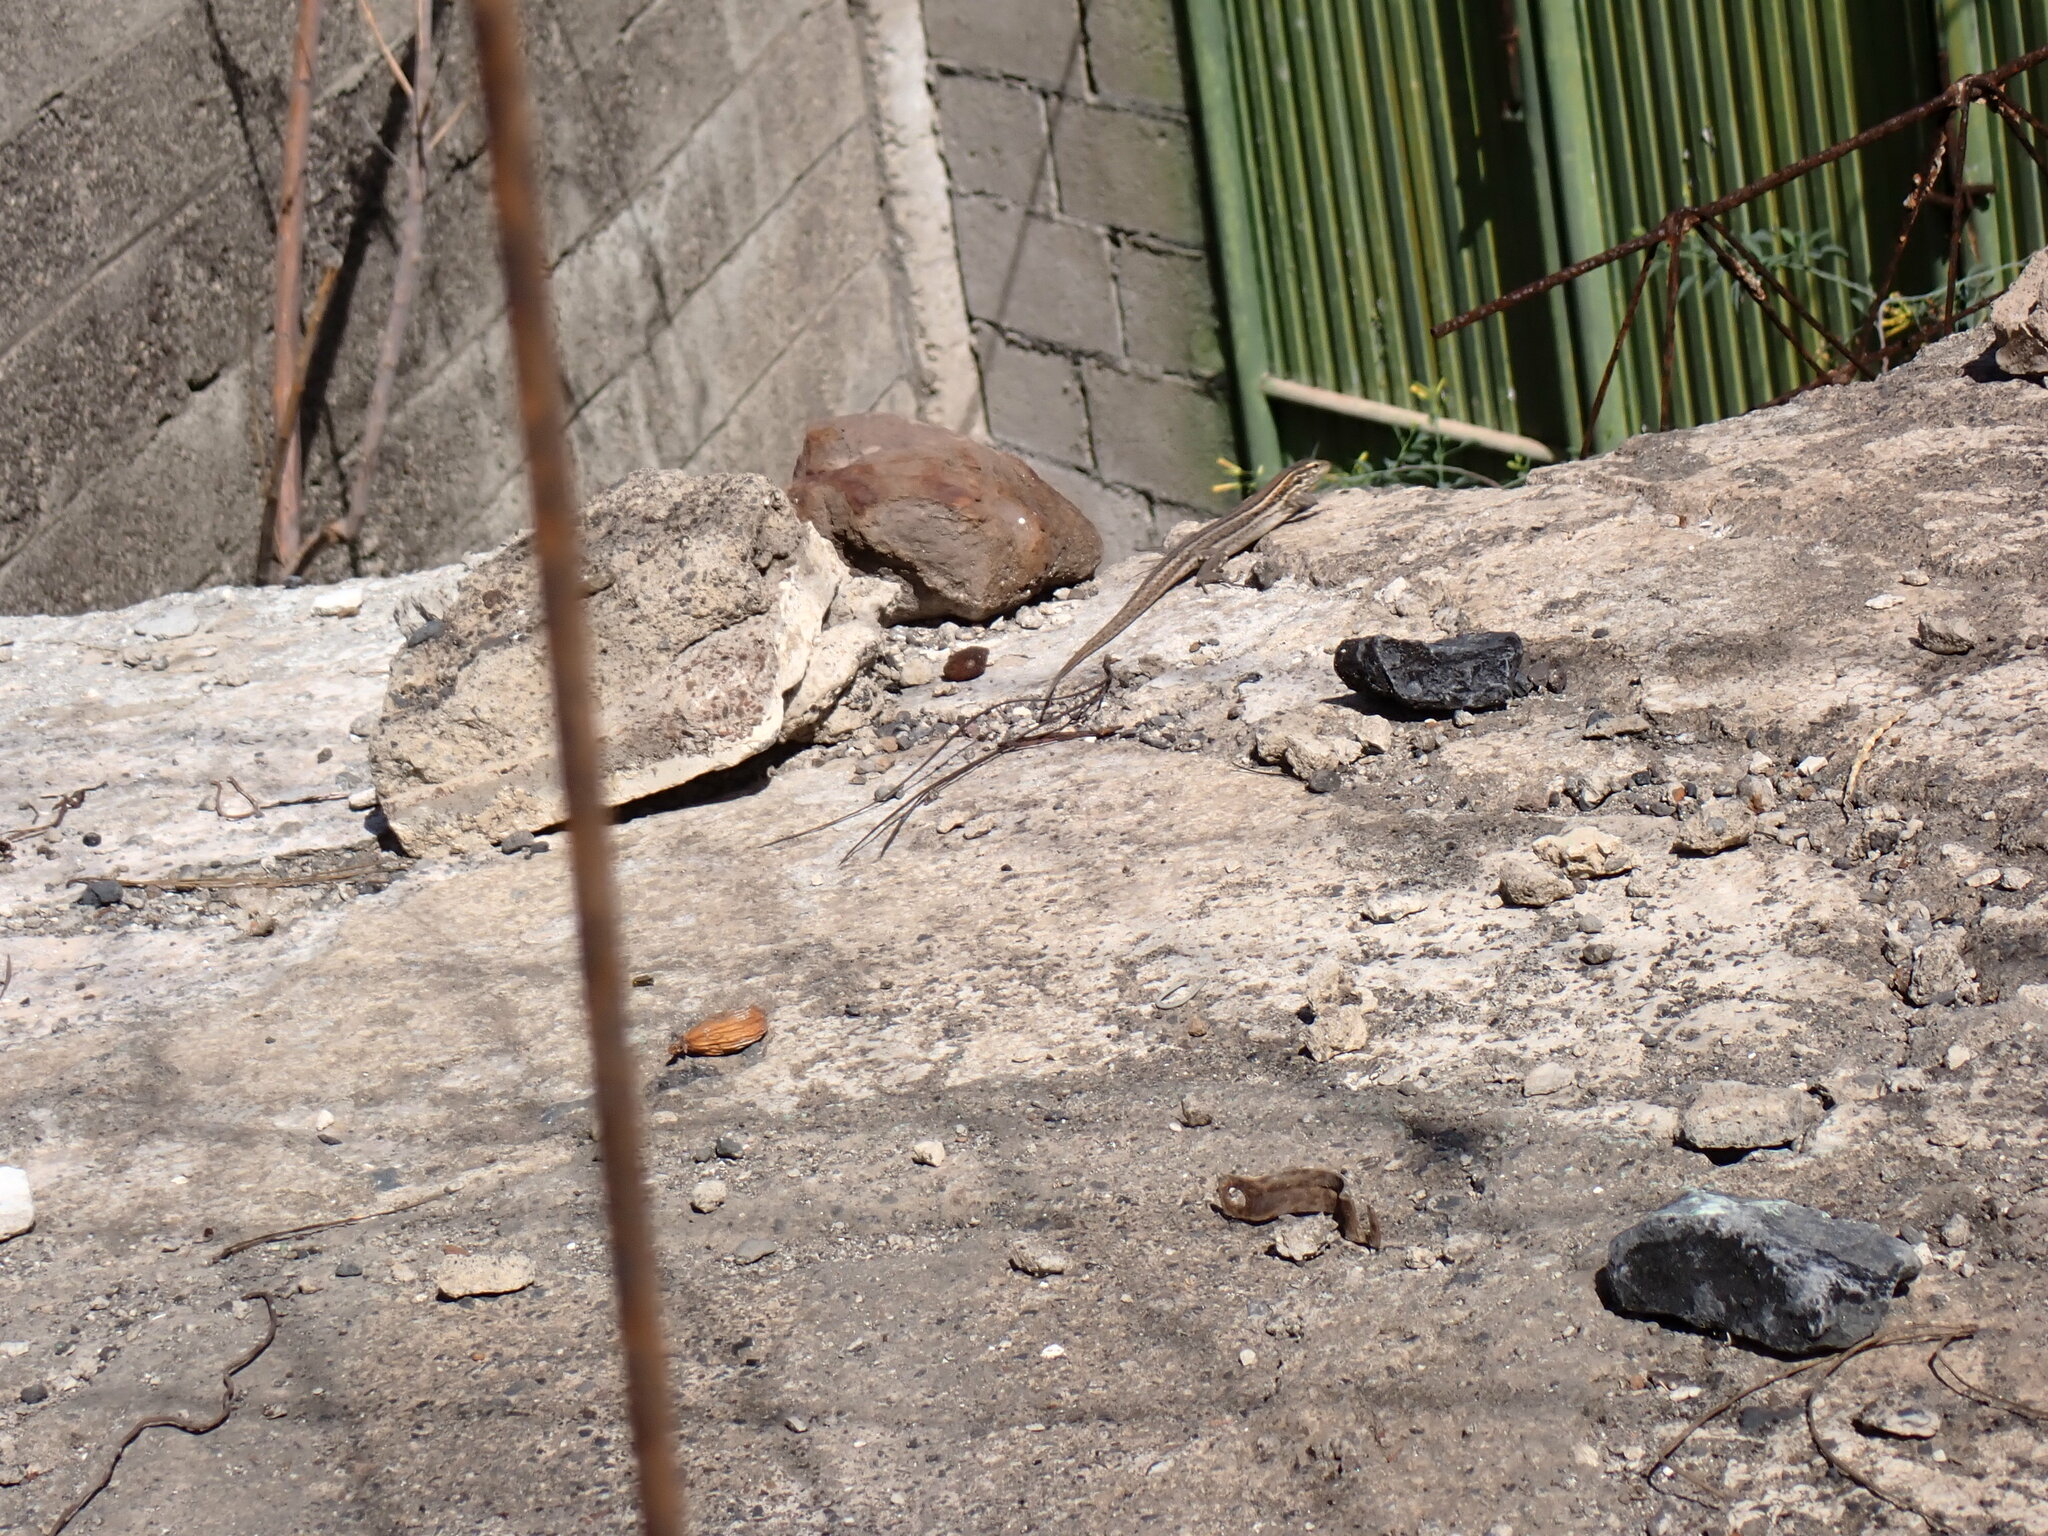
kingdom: Animalia
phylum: Chordata
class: Squamata
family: Lacertidae
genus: Gallotia
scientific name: Gallotia galloti
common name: Gallot's lizard
